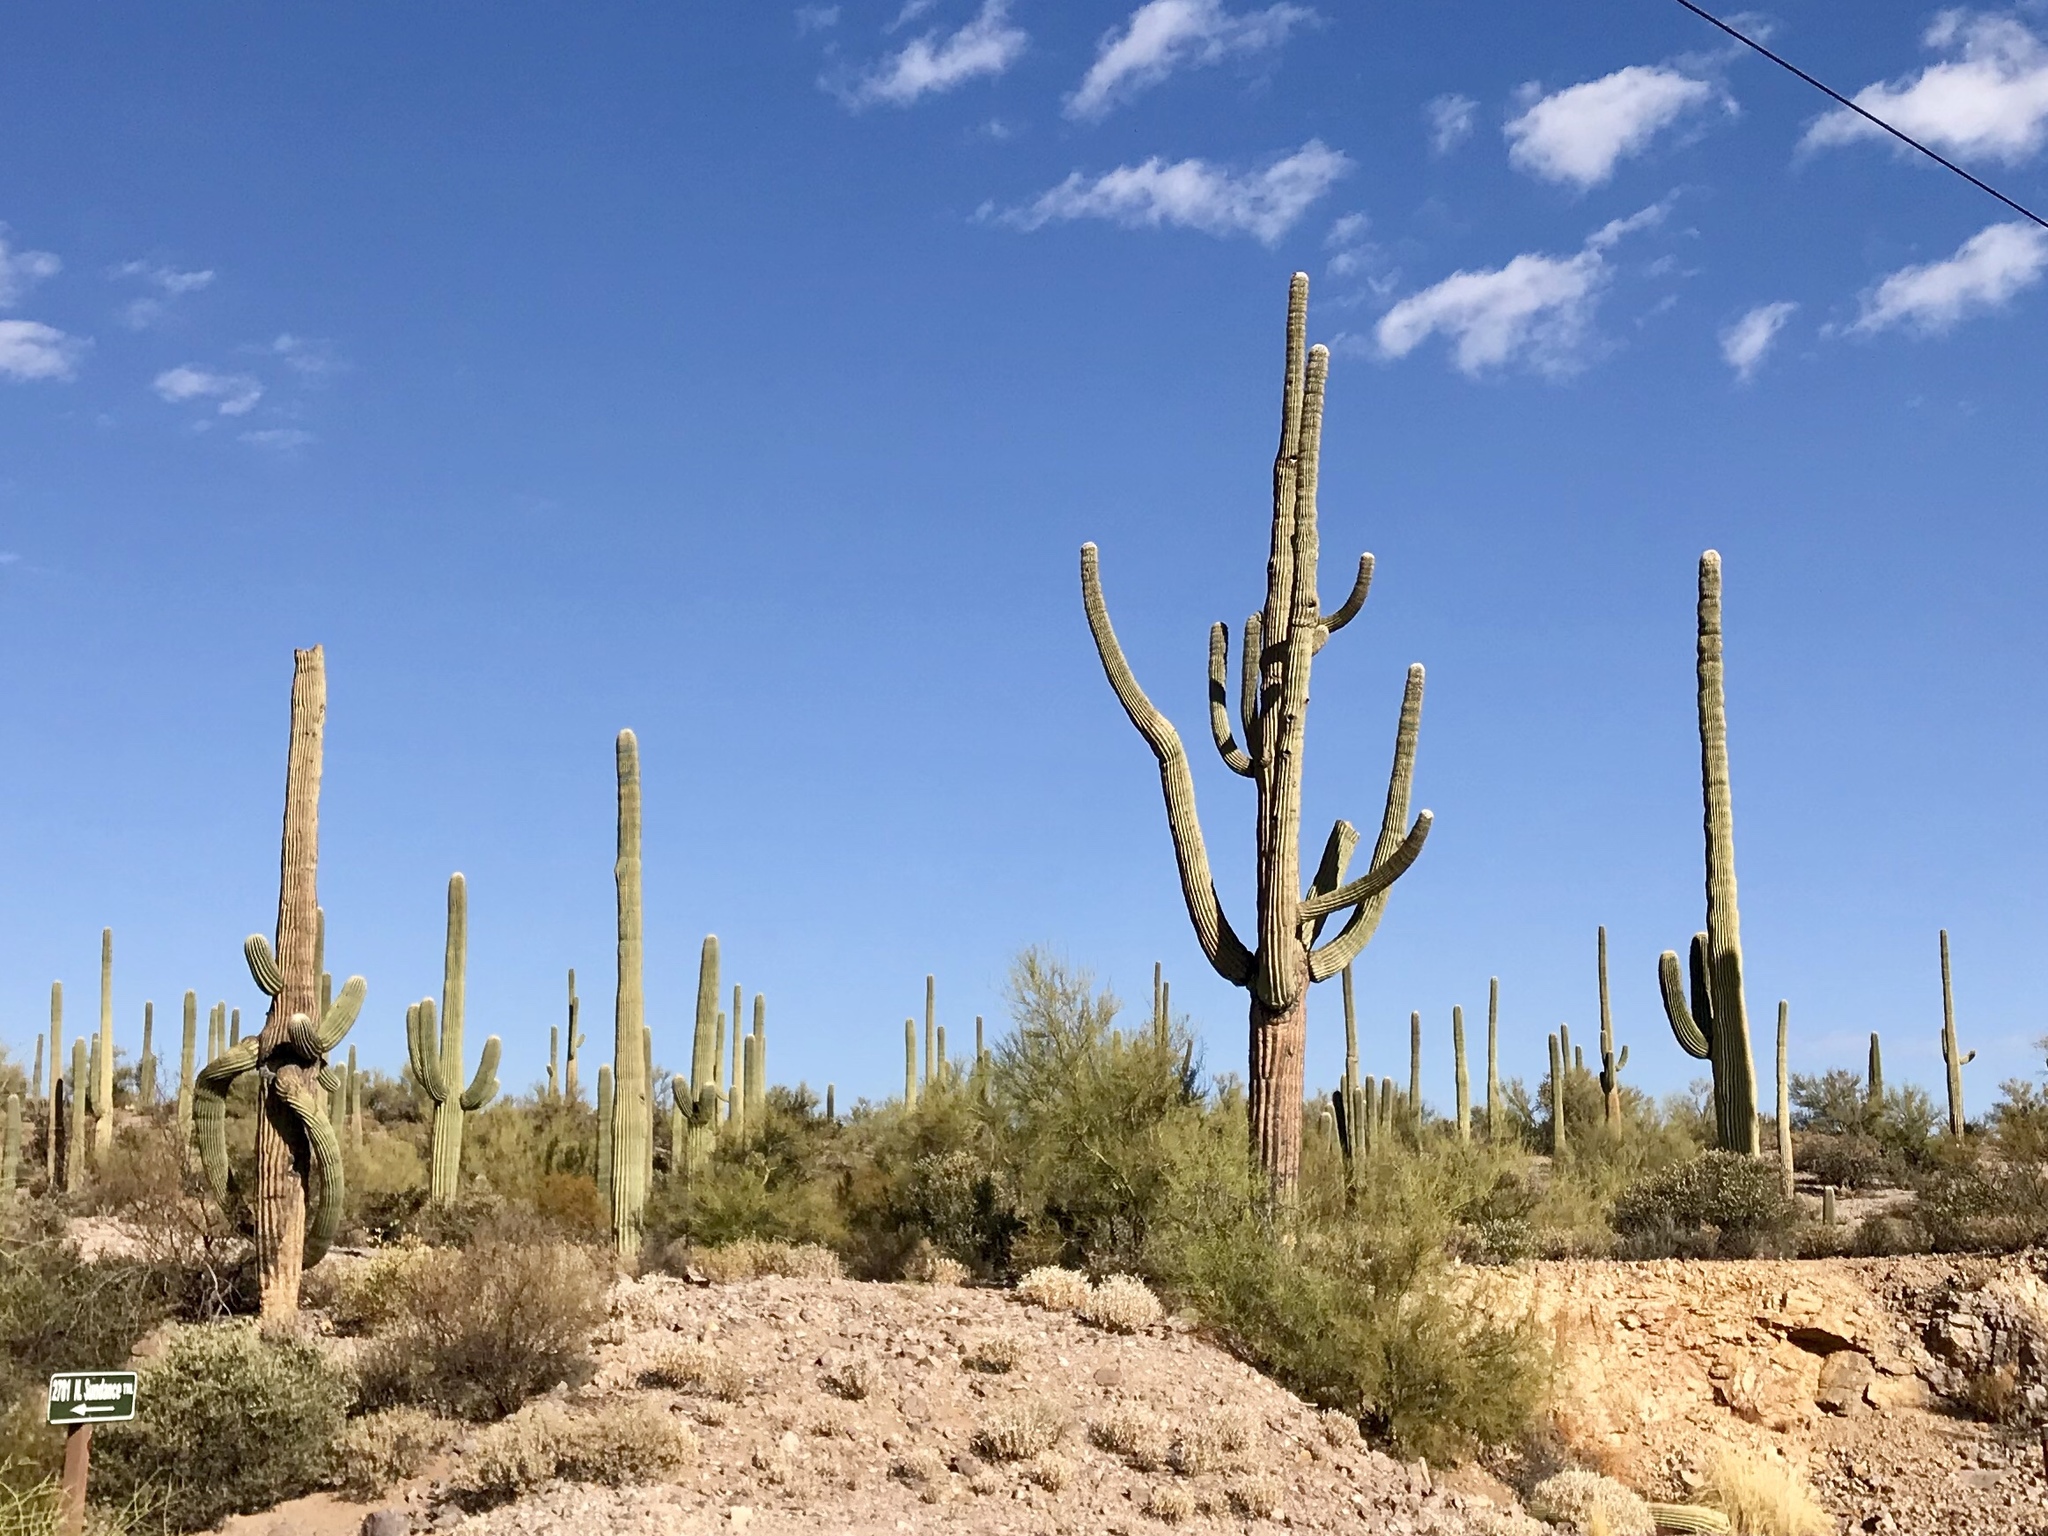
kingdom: Plantae
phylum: Tracheophyta
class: Magnoliopsida
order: Caryophyllales
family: Cactaceae
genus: Carnegiea
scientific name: Carnegiea gigantea
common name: Saguaro
